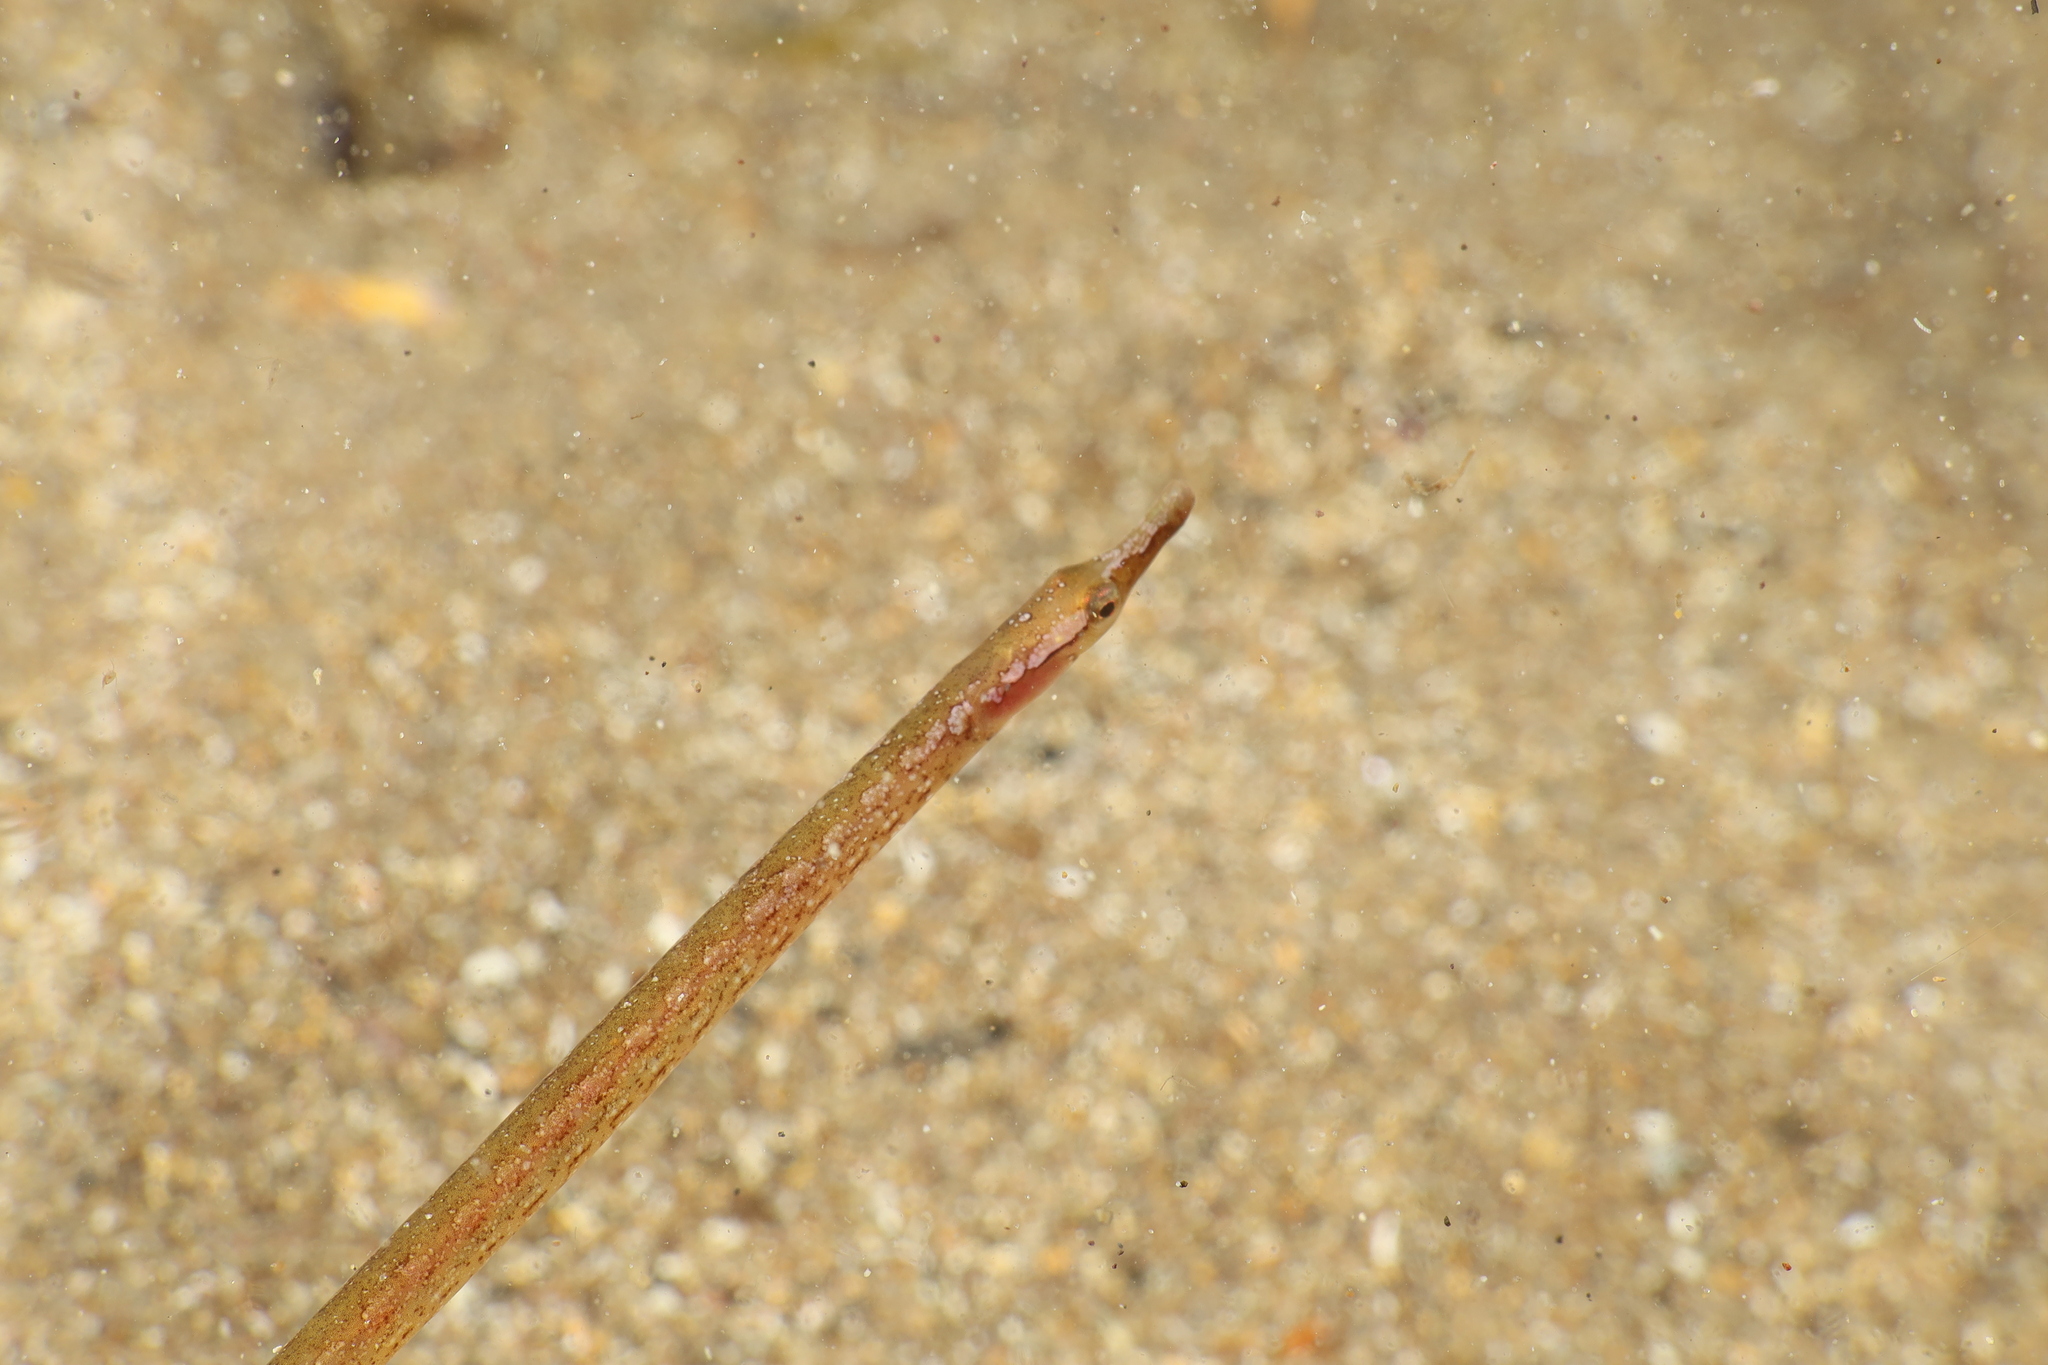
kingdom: Animalia
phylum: Chordata
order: Syngnathiformes
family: Syngnathidae
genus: Nerophis
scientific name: Nerophis maculatus
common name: Spotted pipefish
